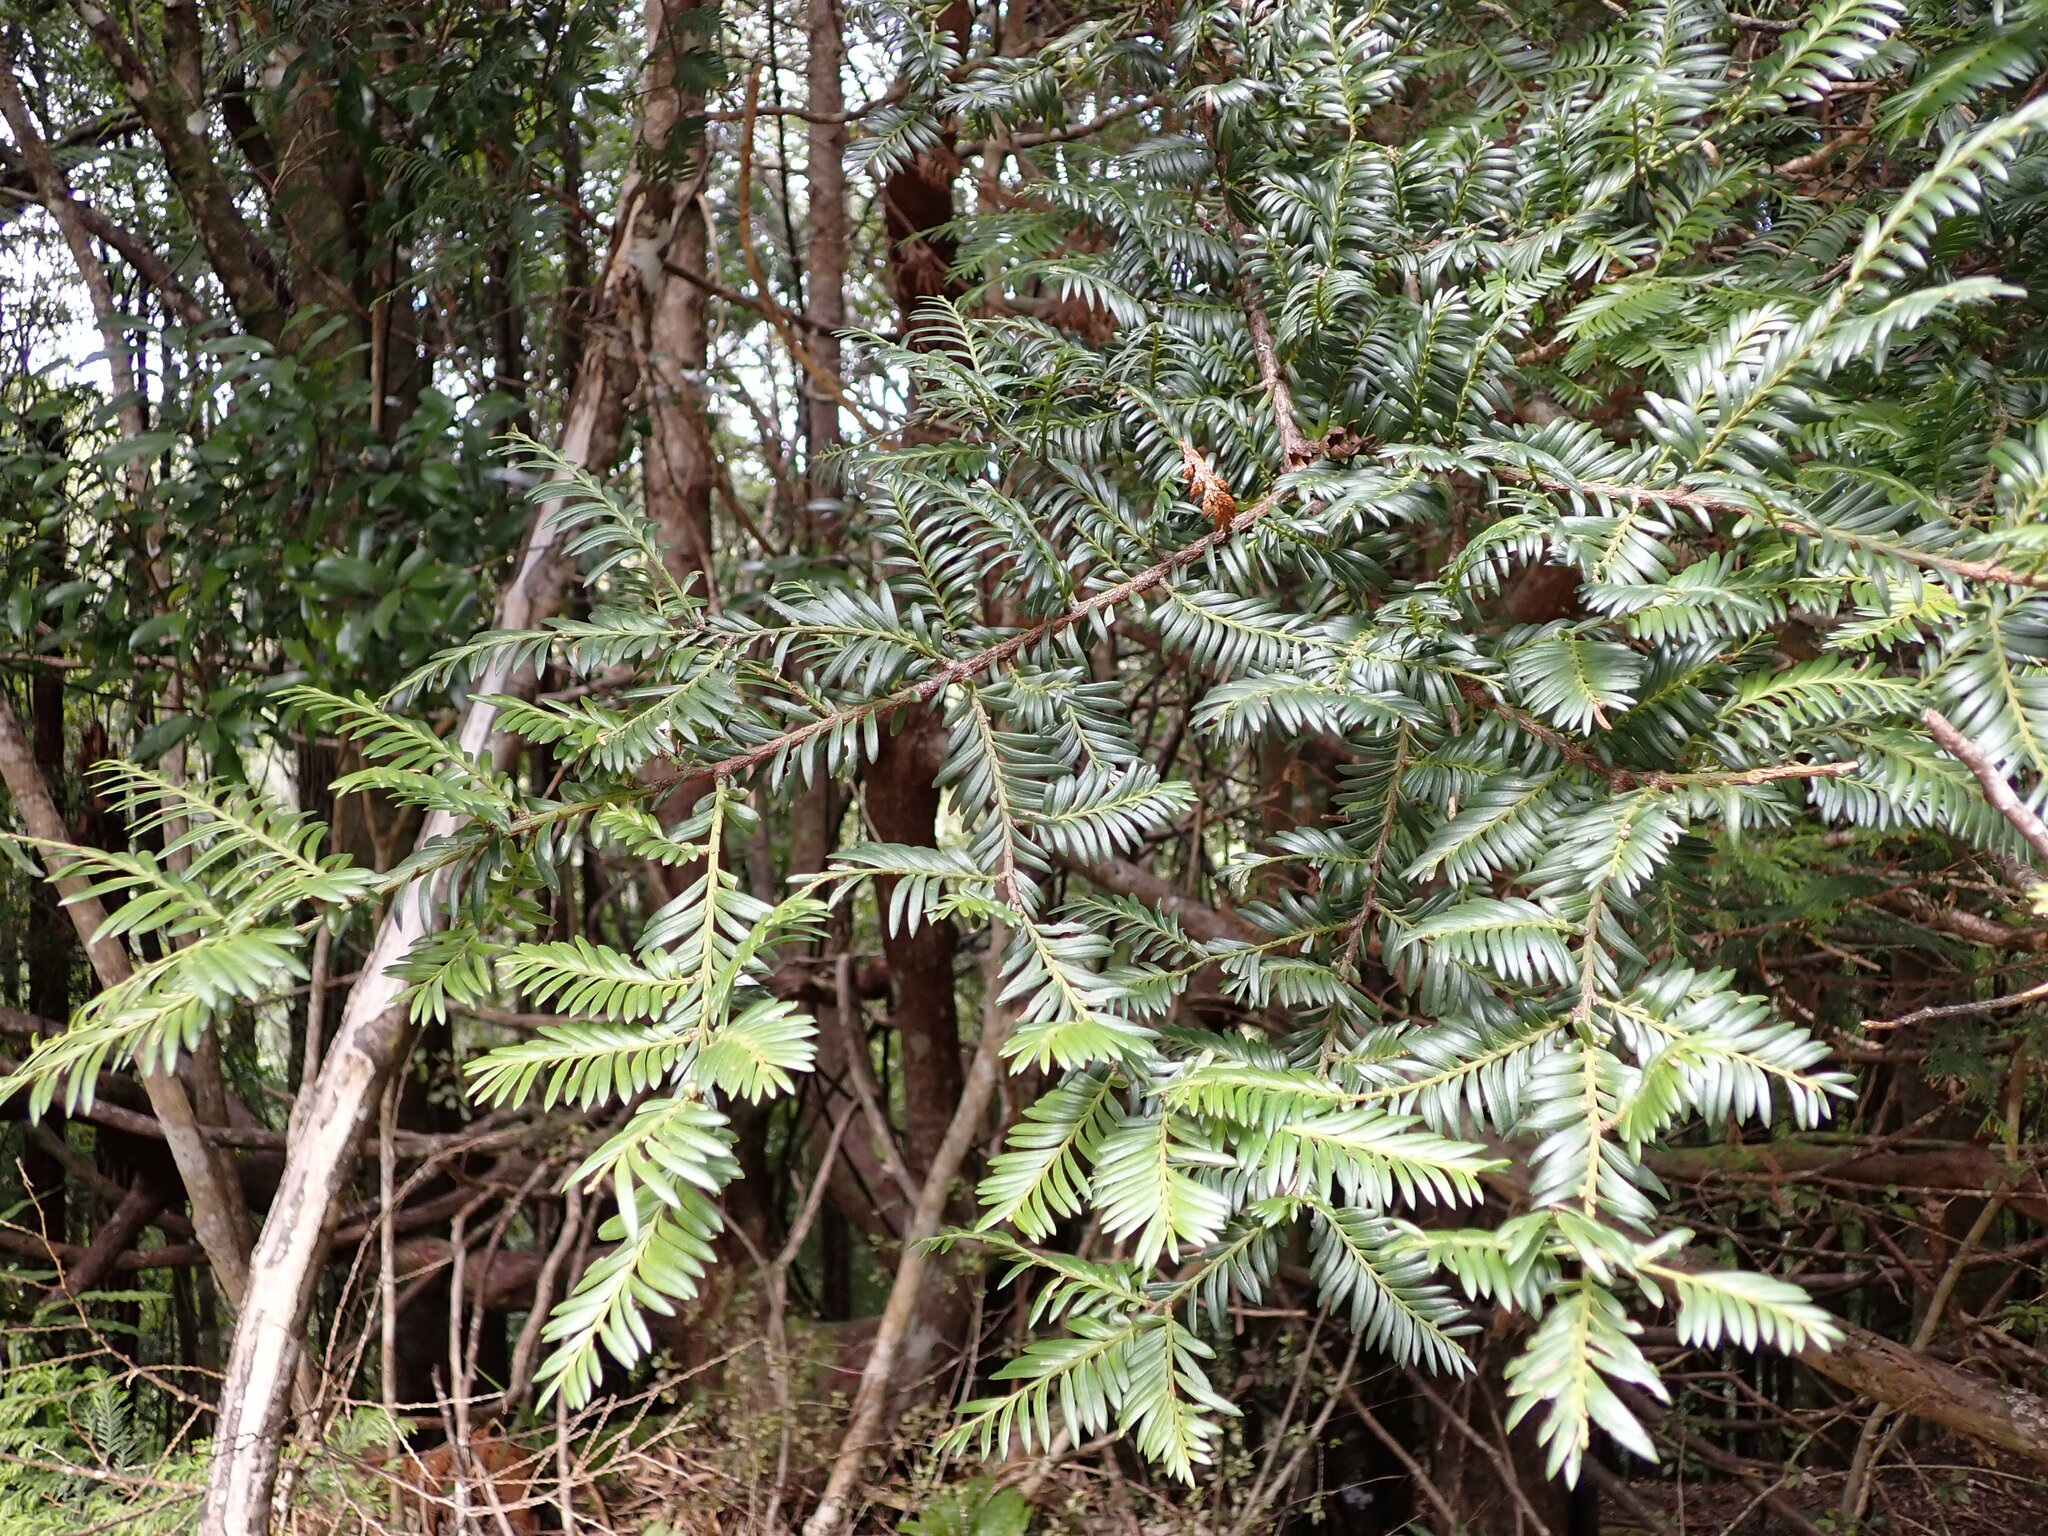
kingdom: Plantae
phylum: Tracheophyta
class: Pinopsida
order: Pinales
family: Podocarpaceae
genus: Prumnopitys
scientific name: Prumnopitys ferruginea
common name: Brown pine
